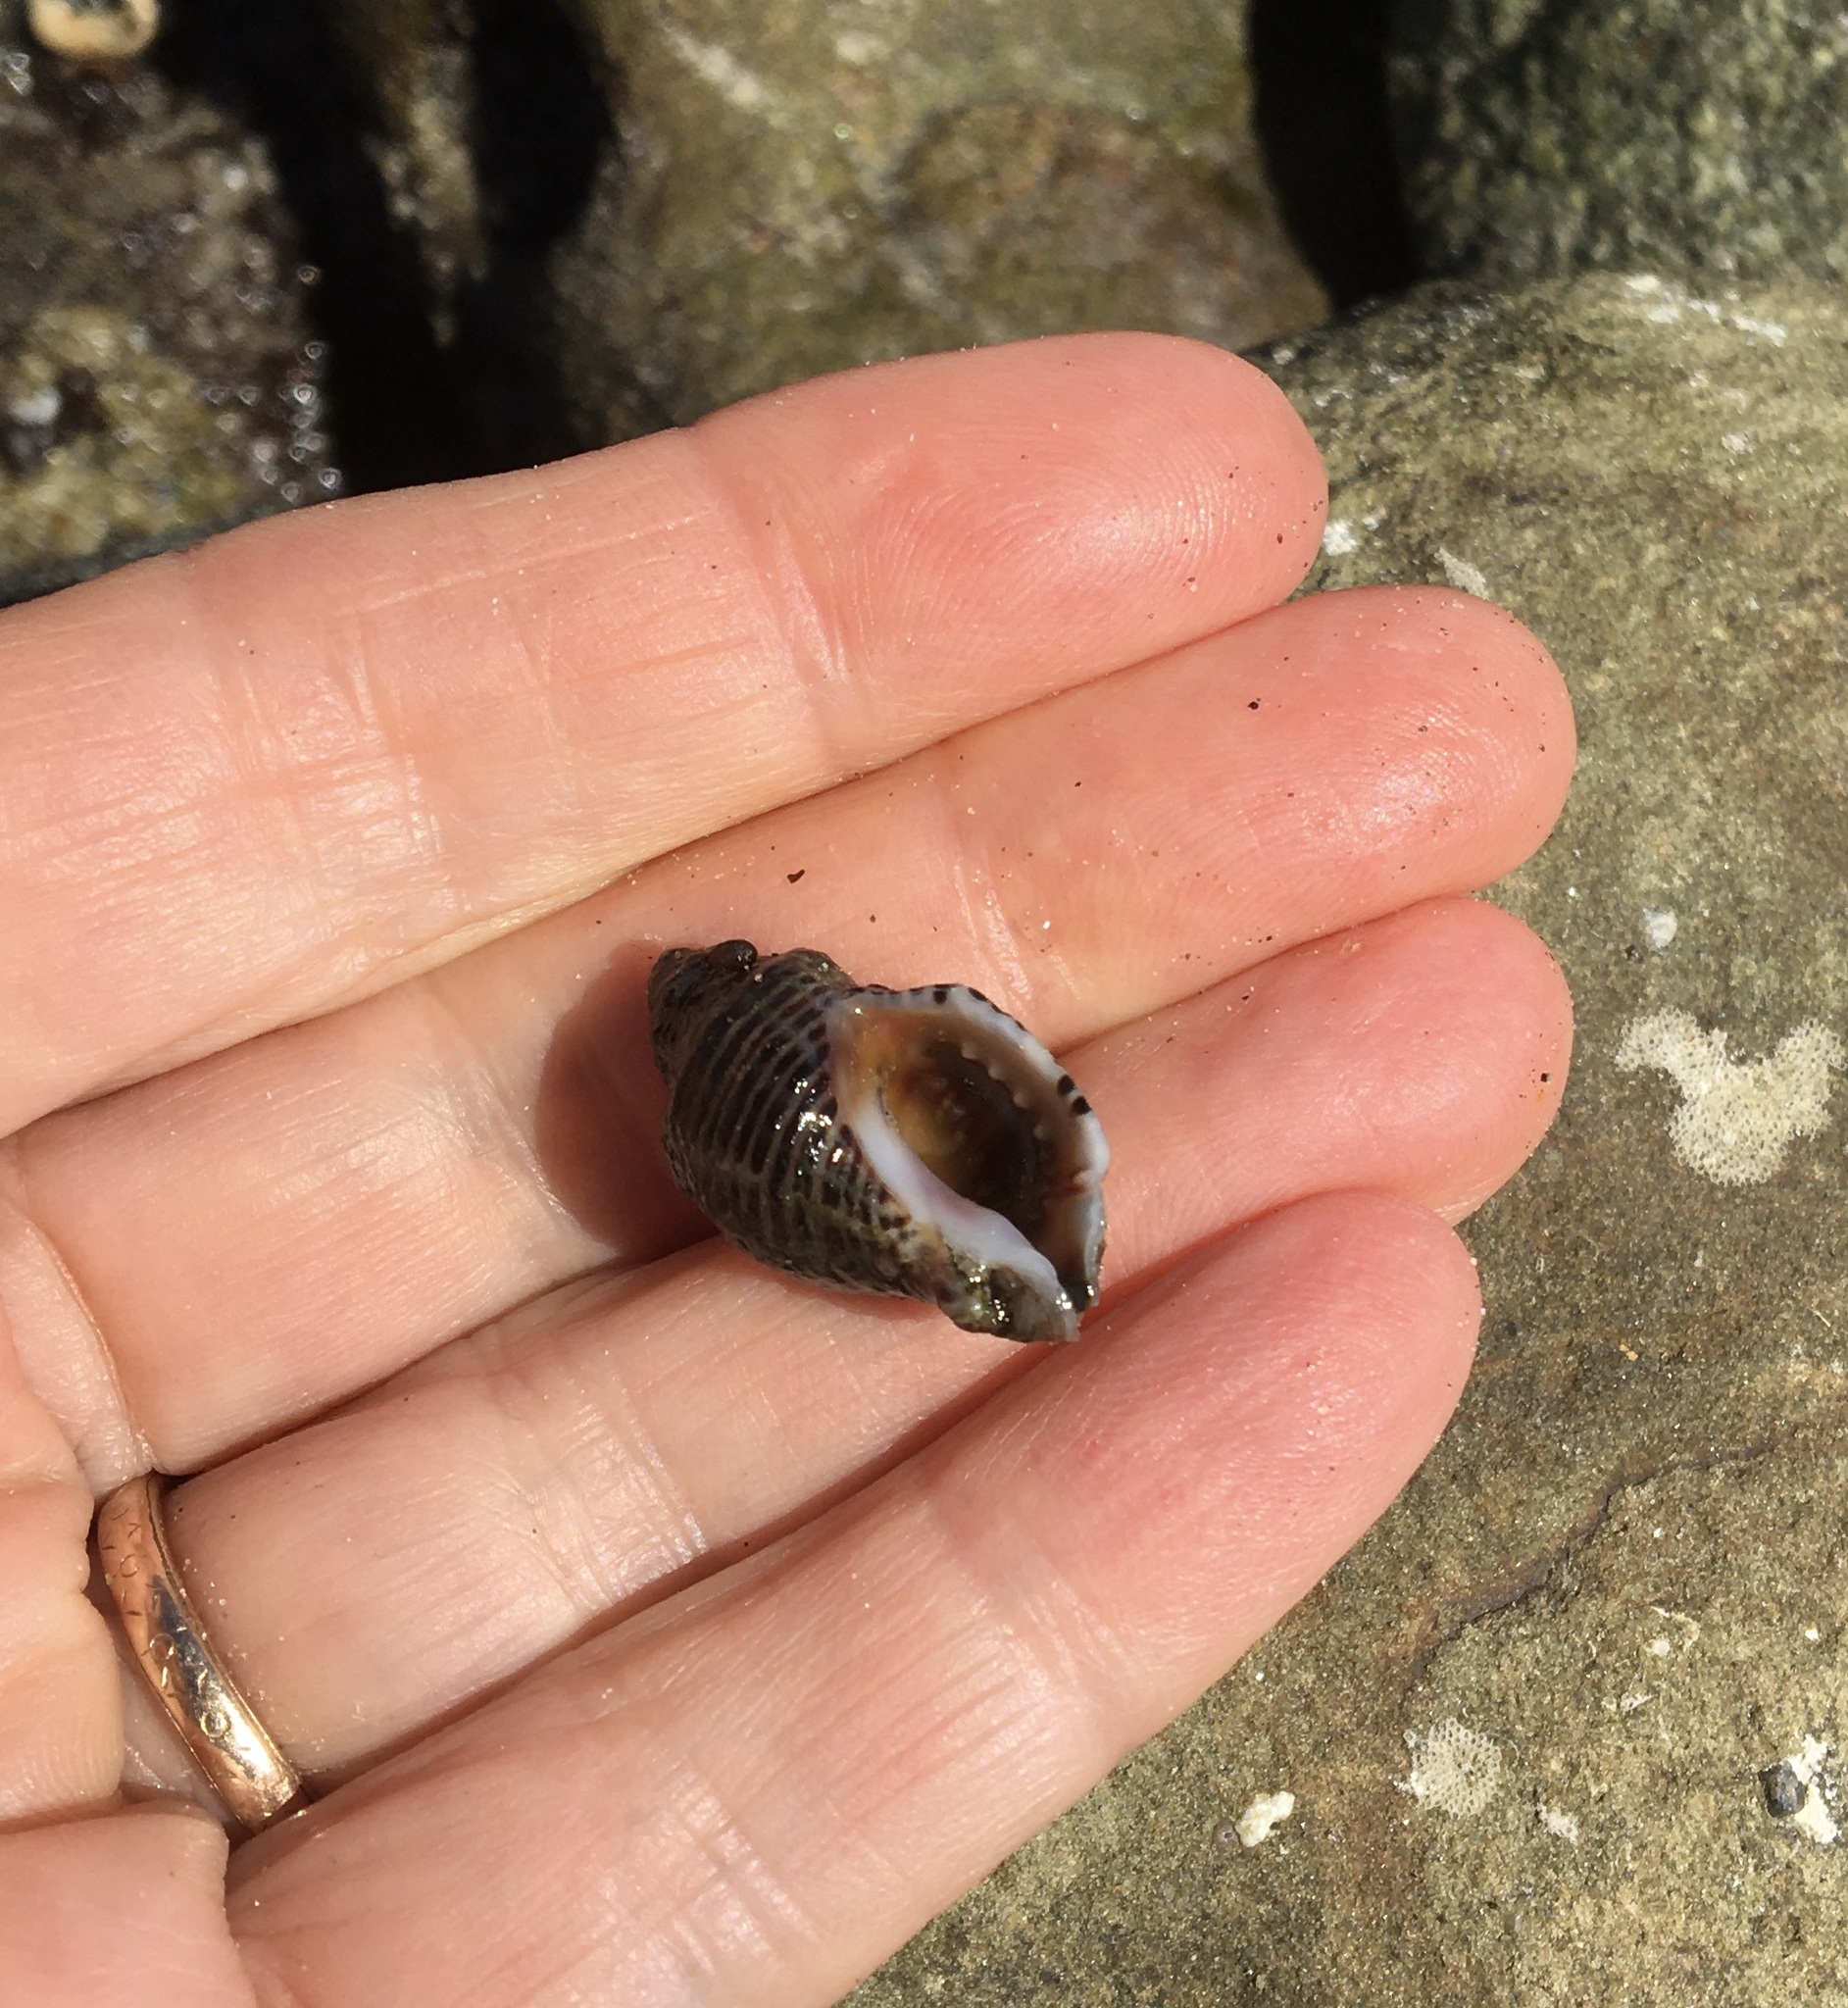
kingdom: Animalia
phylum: Mollusca
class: Gastropoda
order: Neogastropoda
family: Muricidae
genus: Acanthinucella
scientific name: Acanthinucella spirata
